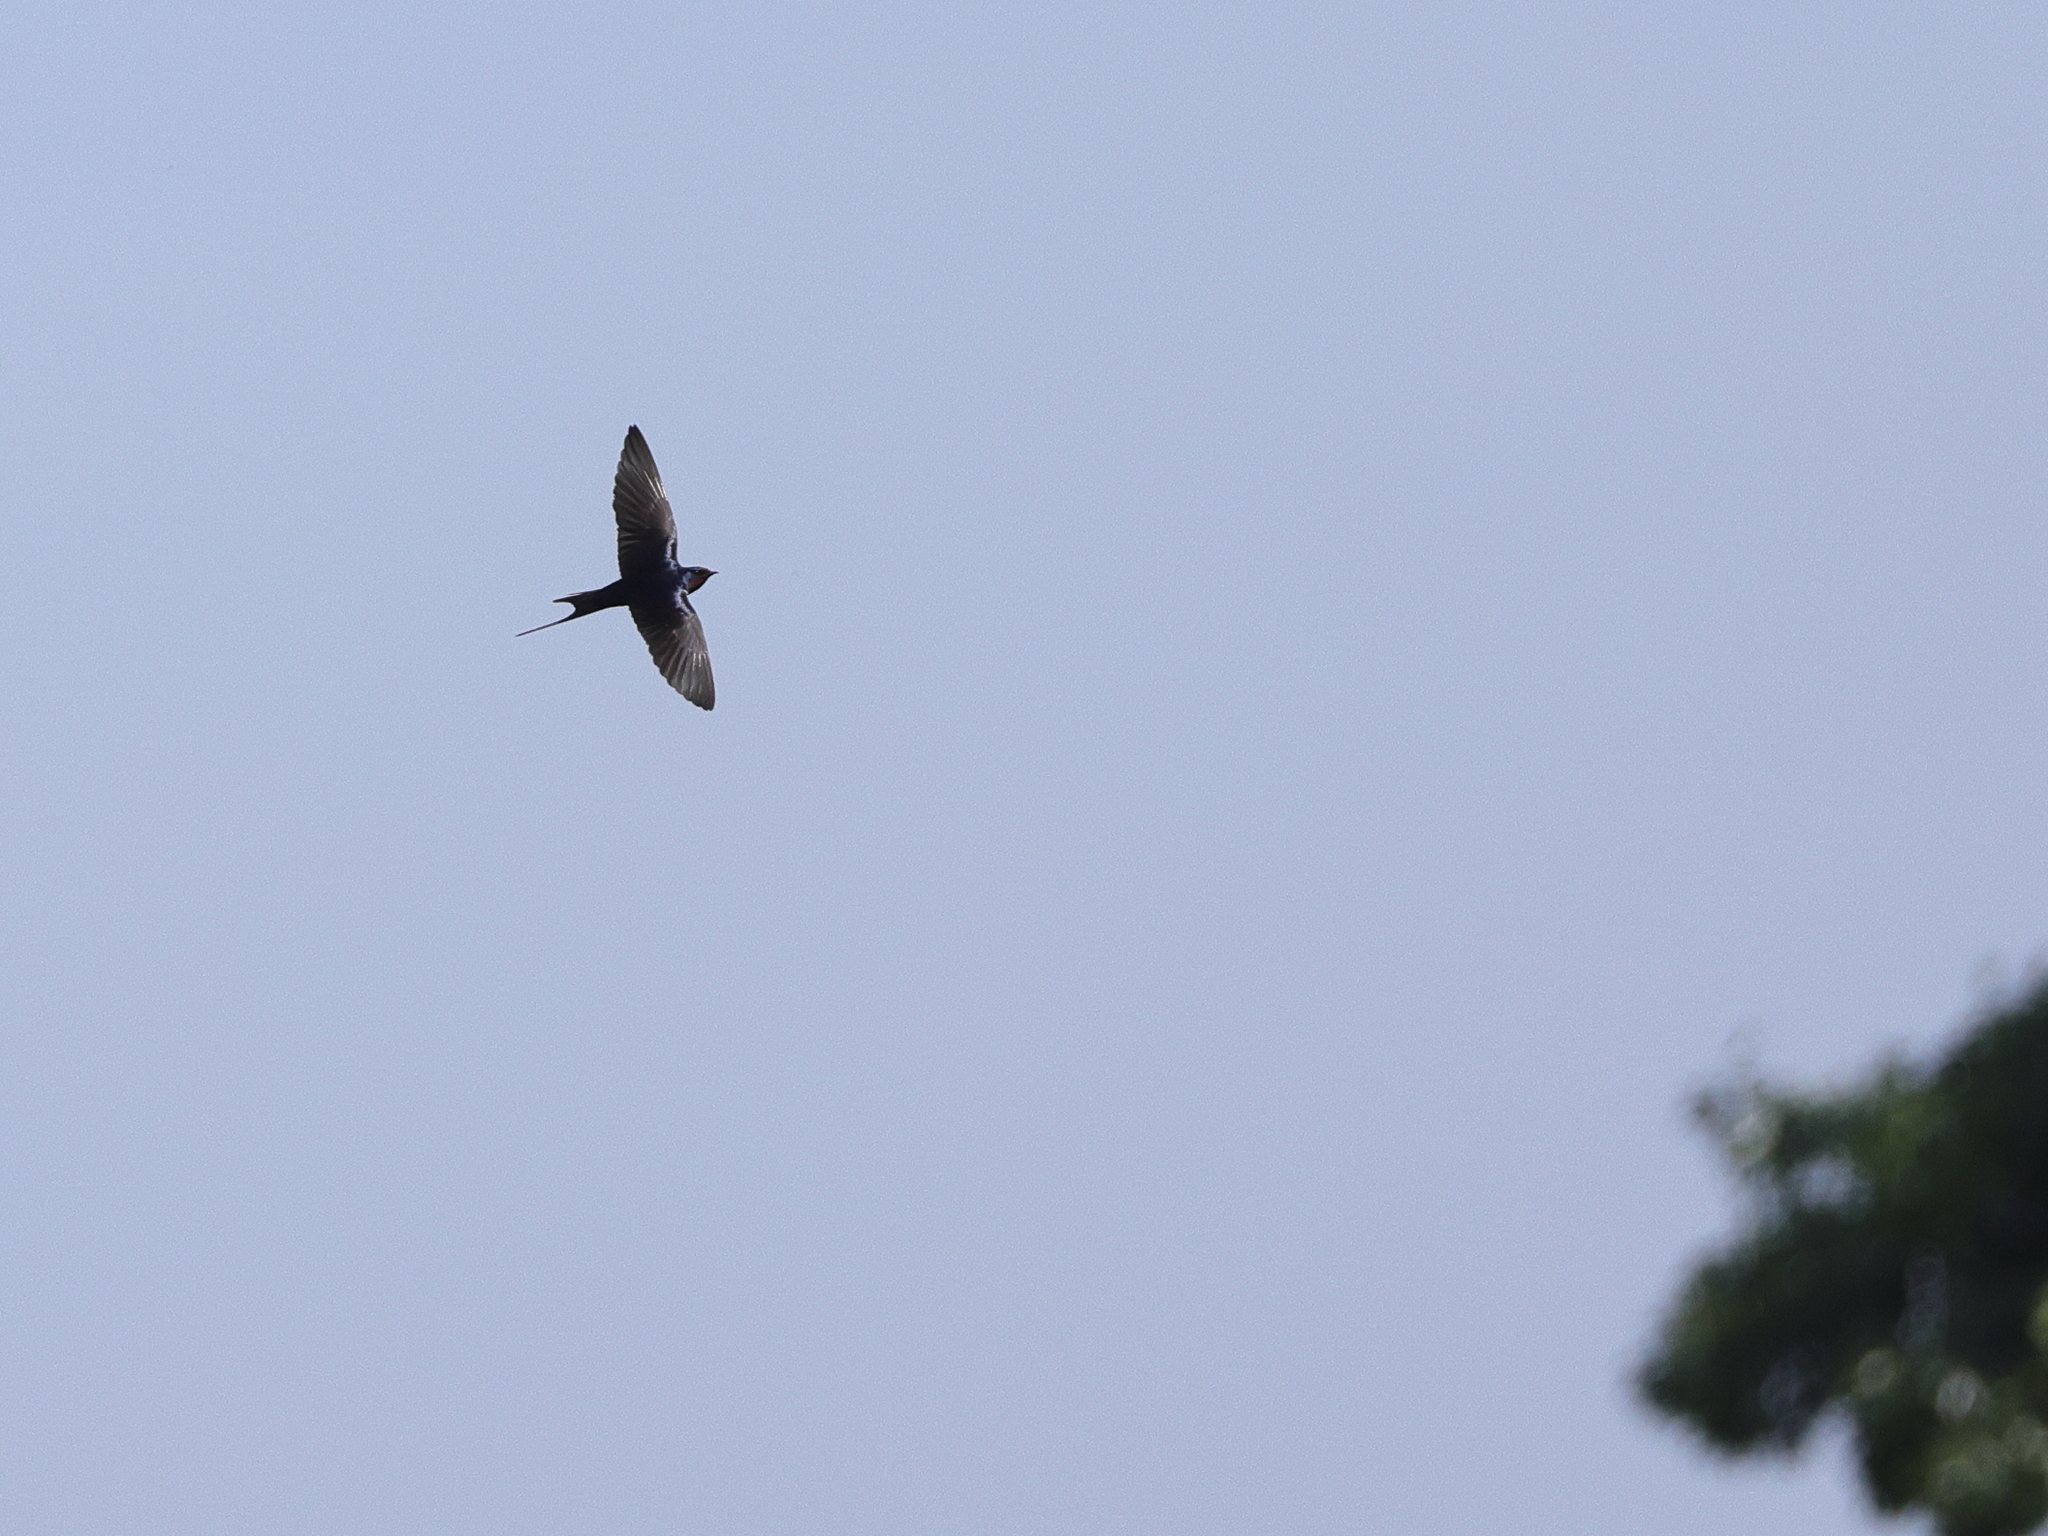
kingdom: Animalia
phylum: Chordata
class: Aves
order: Passeriformes
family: Hirundinidae
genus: Hirundo
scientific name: Hirundo rustica
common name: Barn swallow
